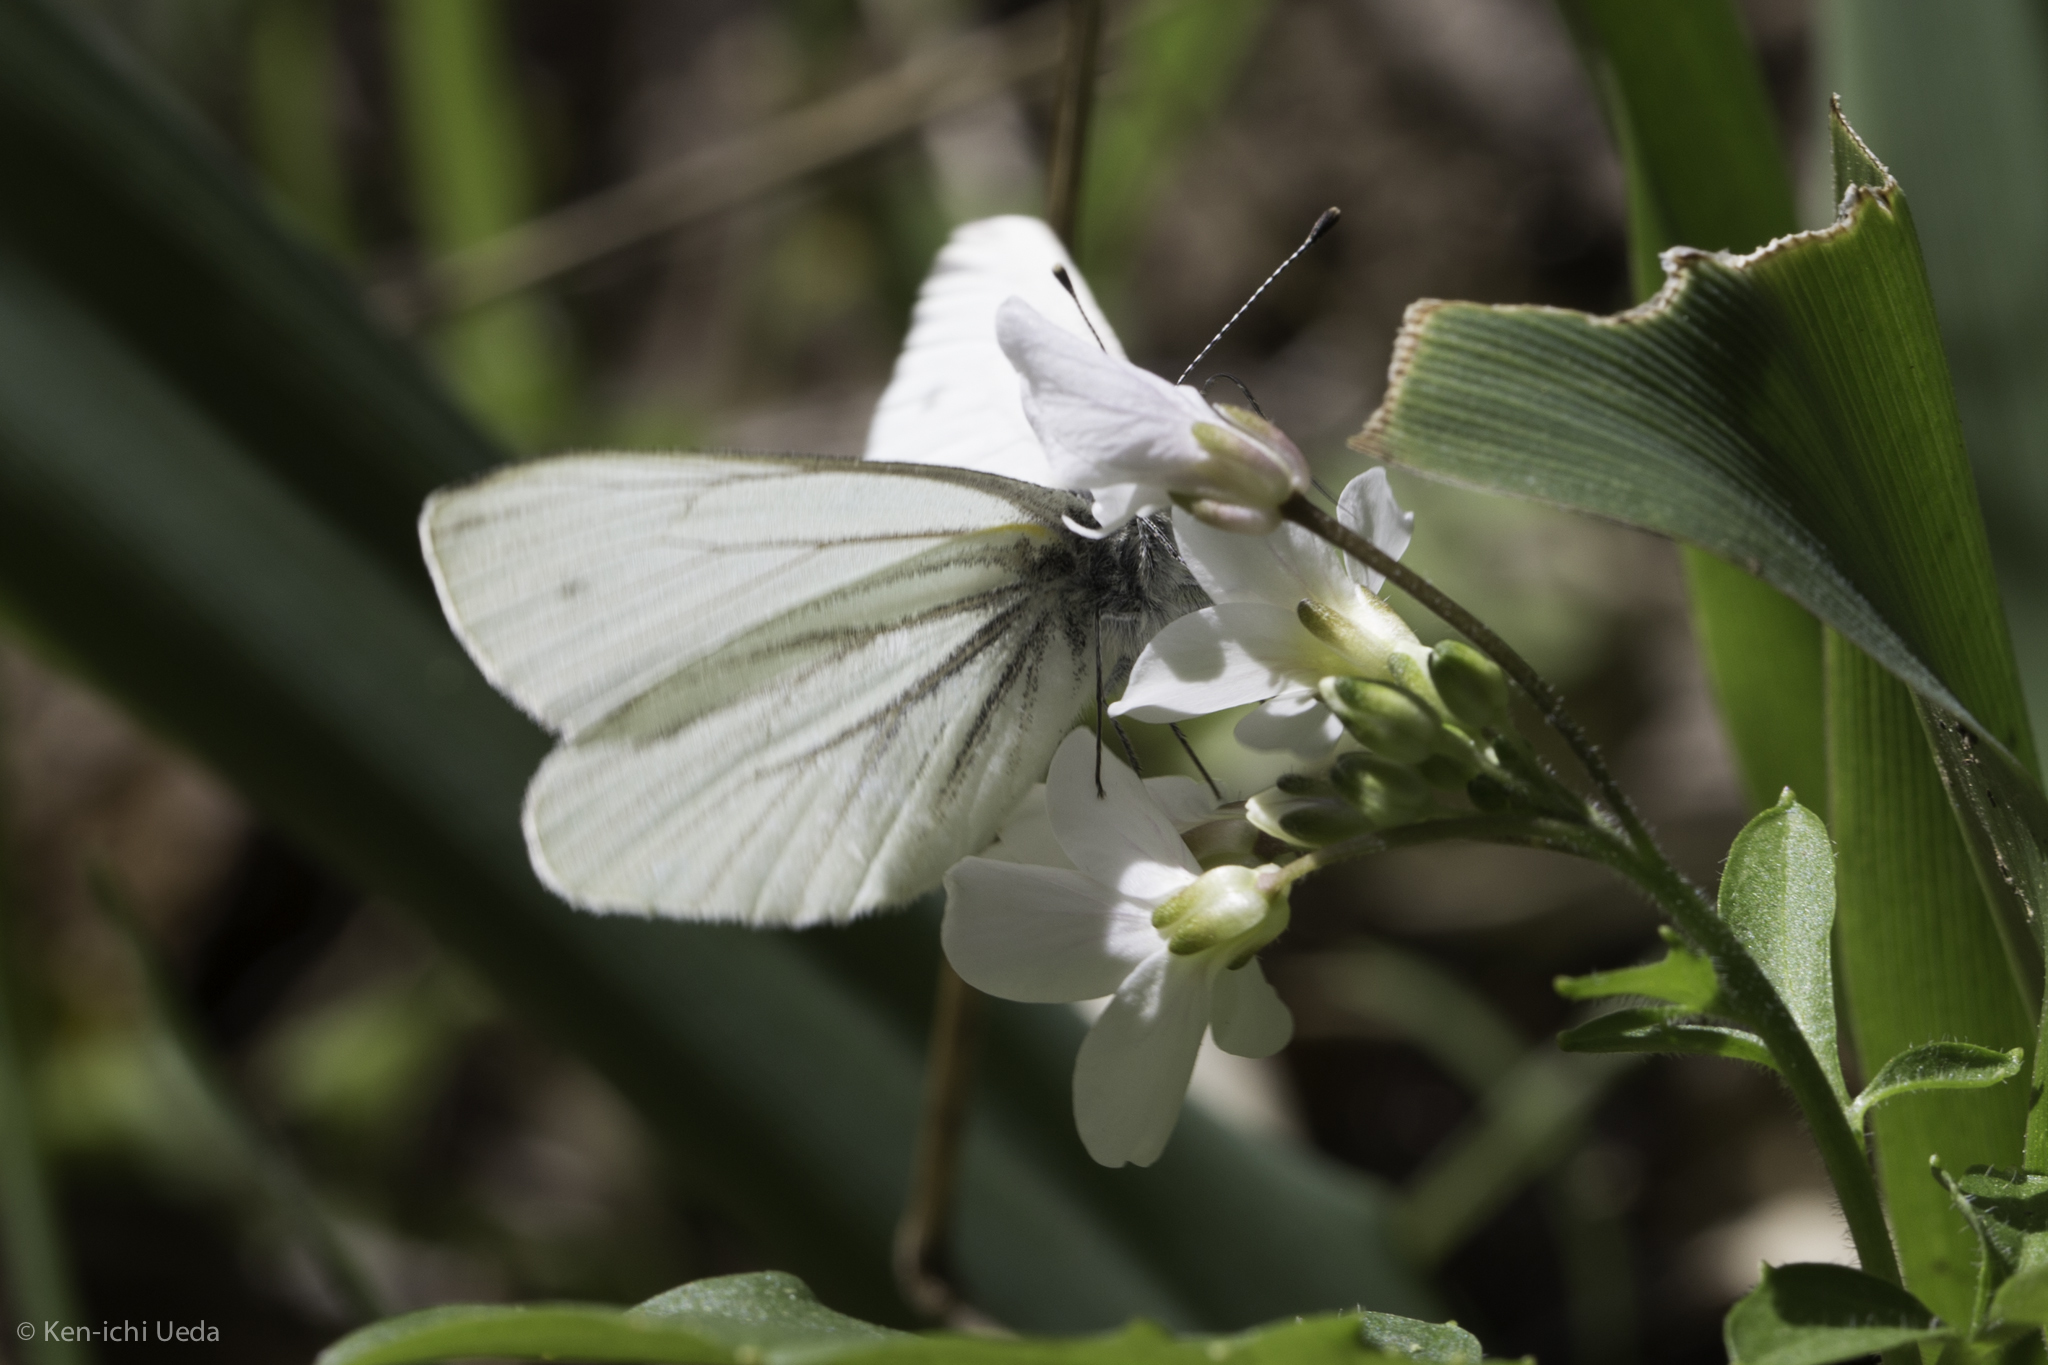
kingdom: Animalia
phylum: Arthropoda
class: Insecta
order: Lepidoptera
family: Pieridae
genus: Pieris
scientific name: Pieris marginalis
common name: Margined white
